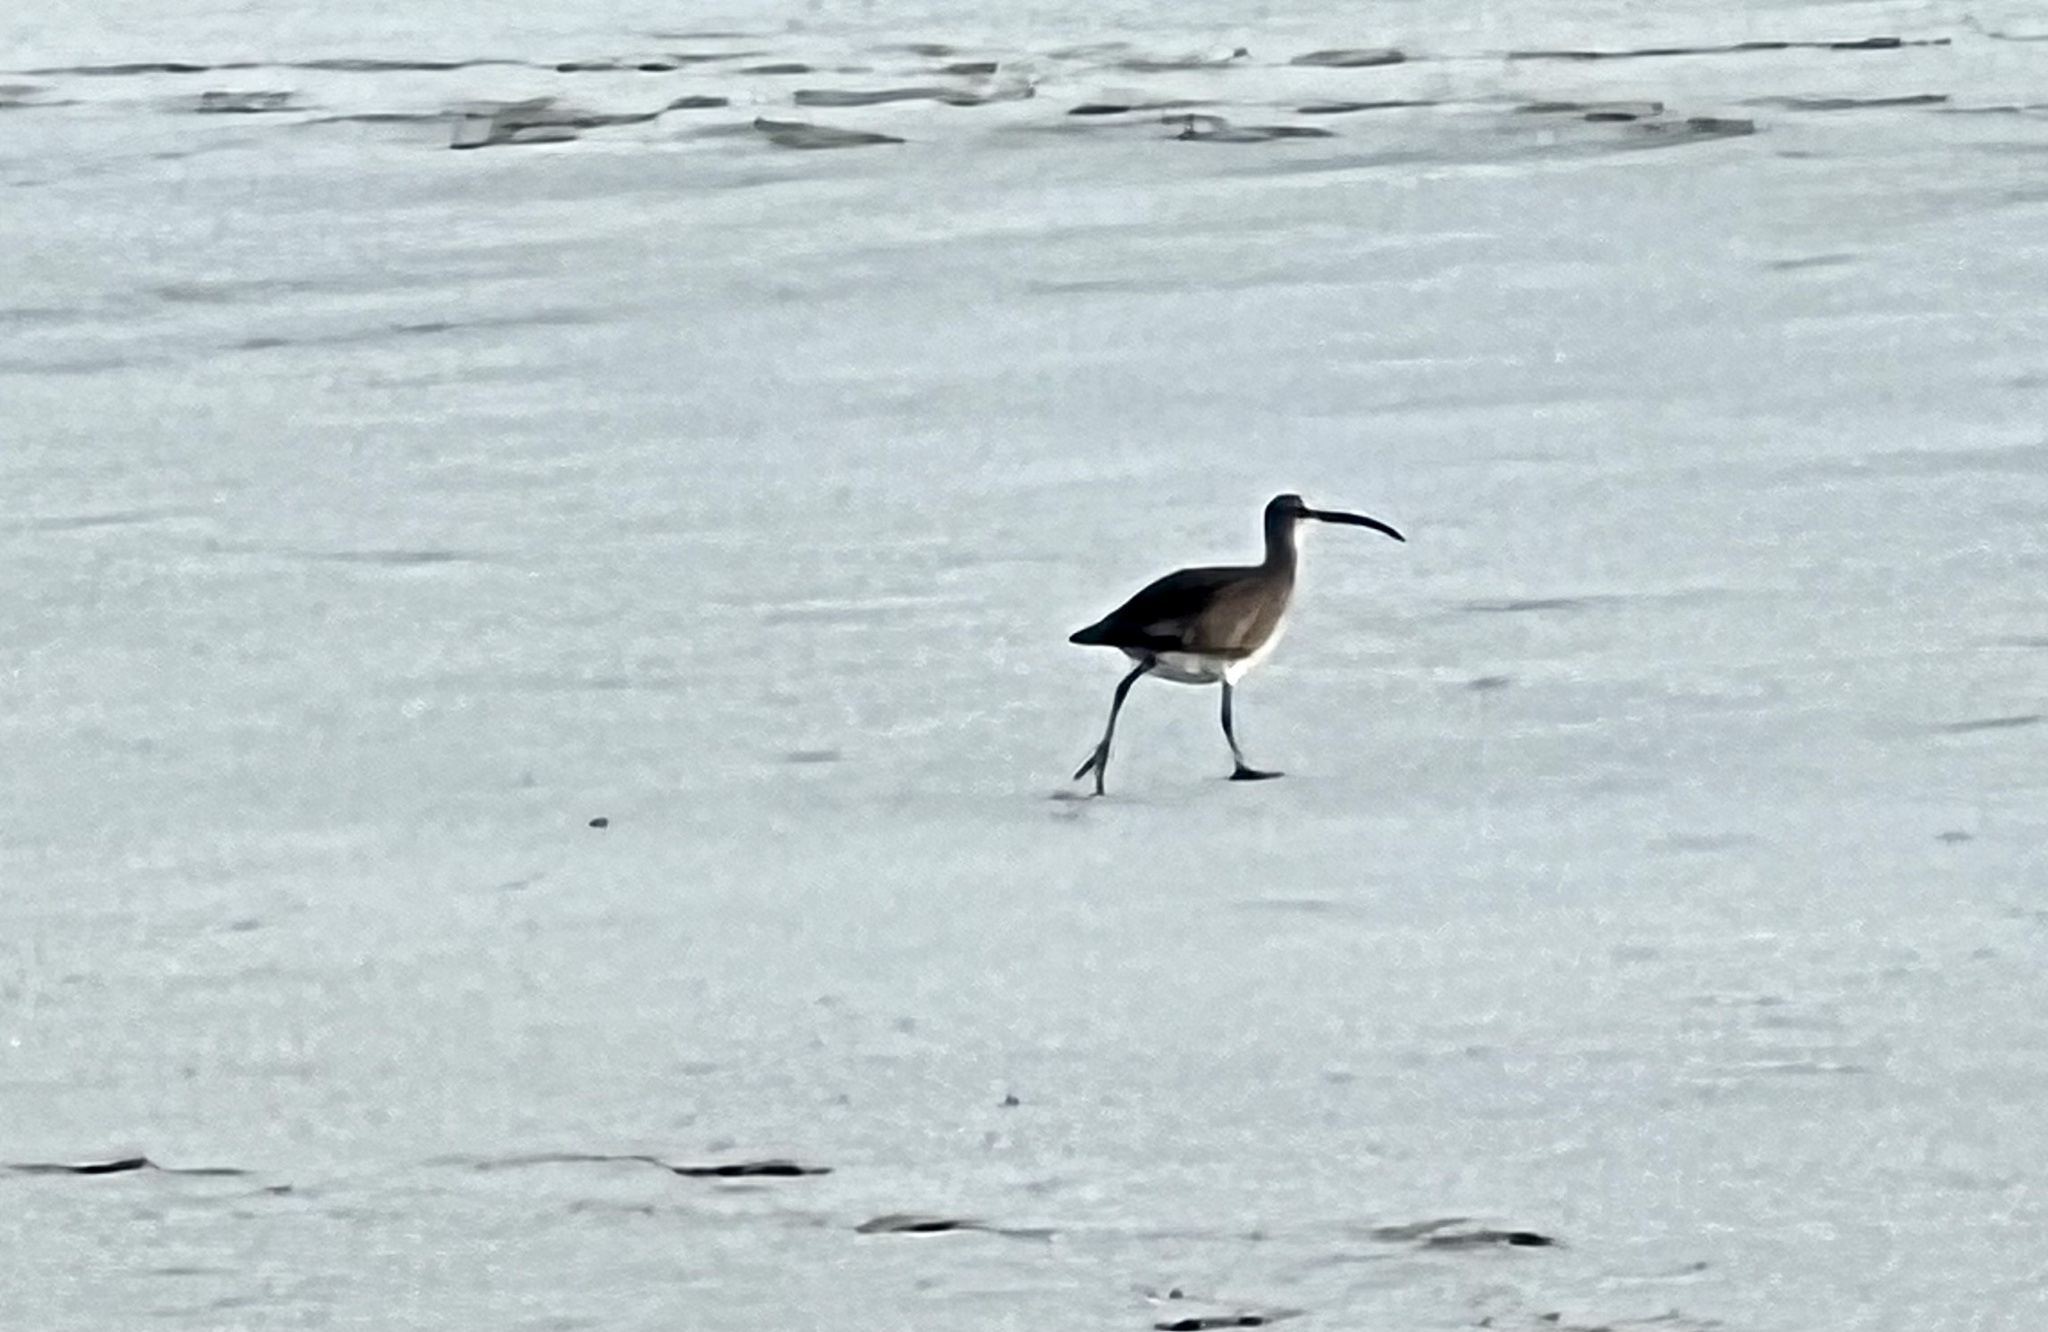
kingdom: Animalia
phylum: Chordata
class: Aves
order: Charadriiformes
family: Scolopacidae
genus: Numenius
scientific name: Numenius americanus
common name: Long-billed curlew
